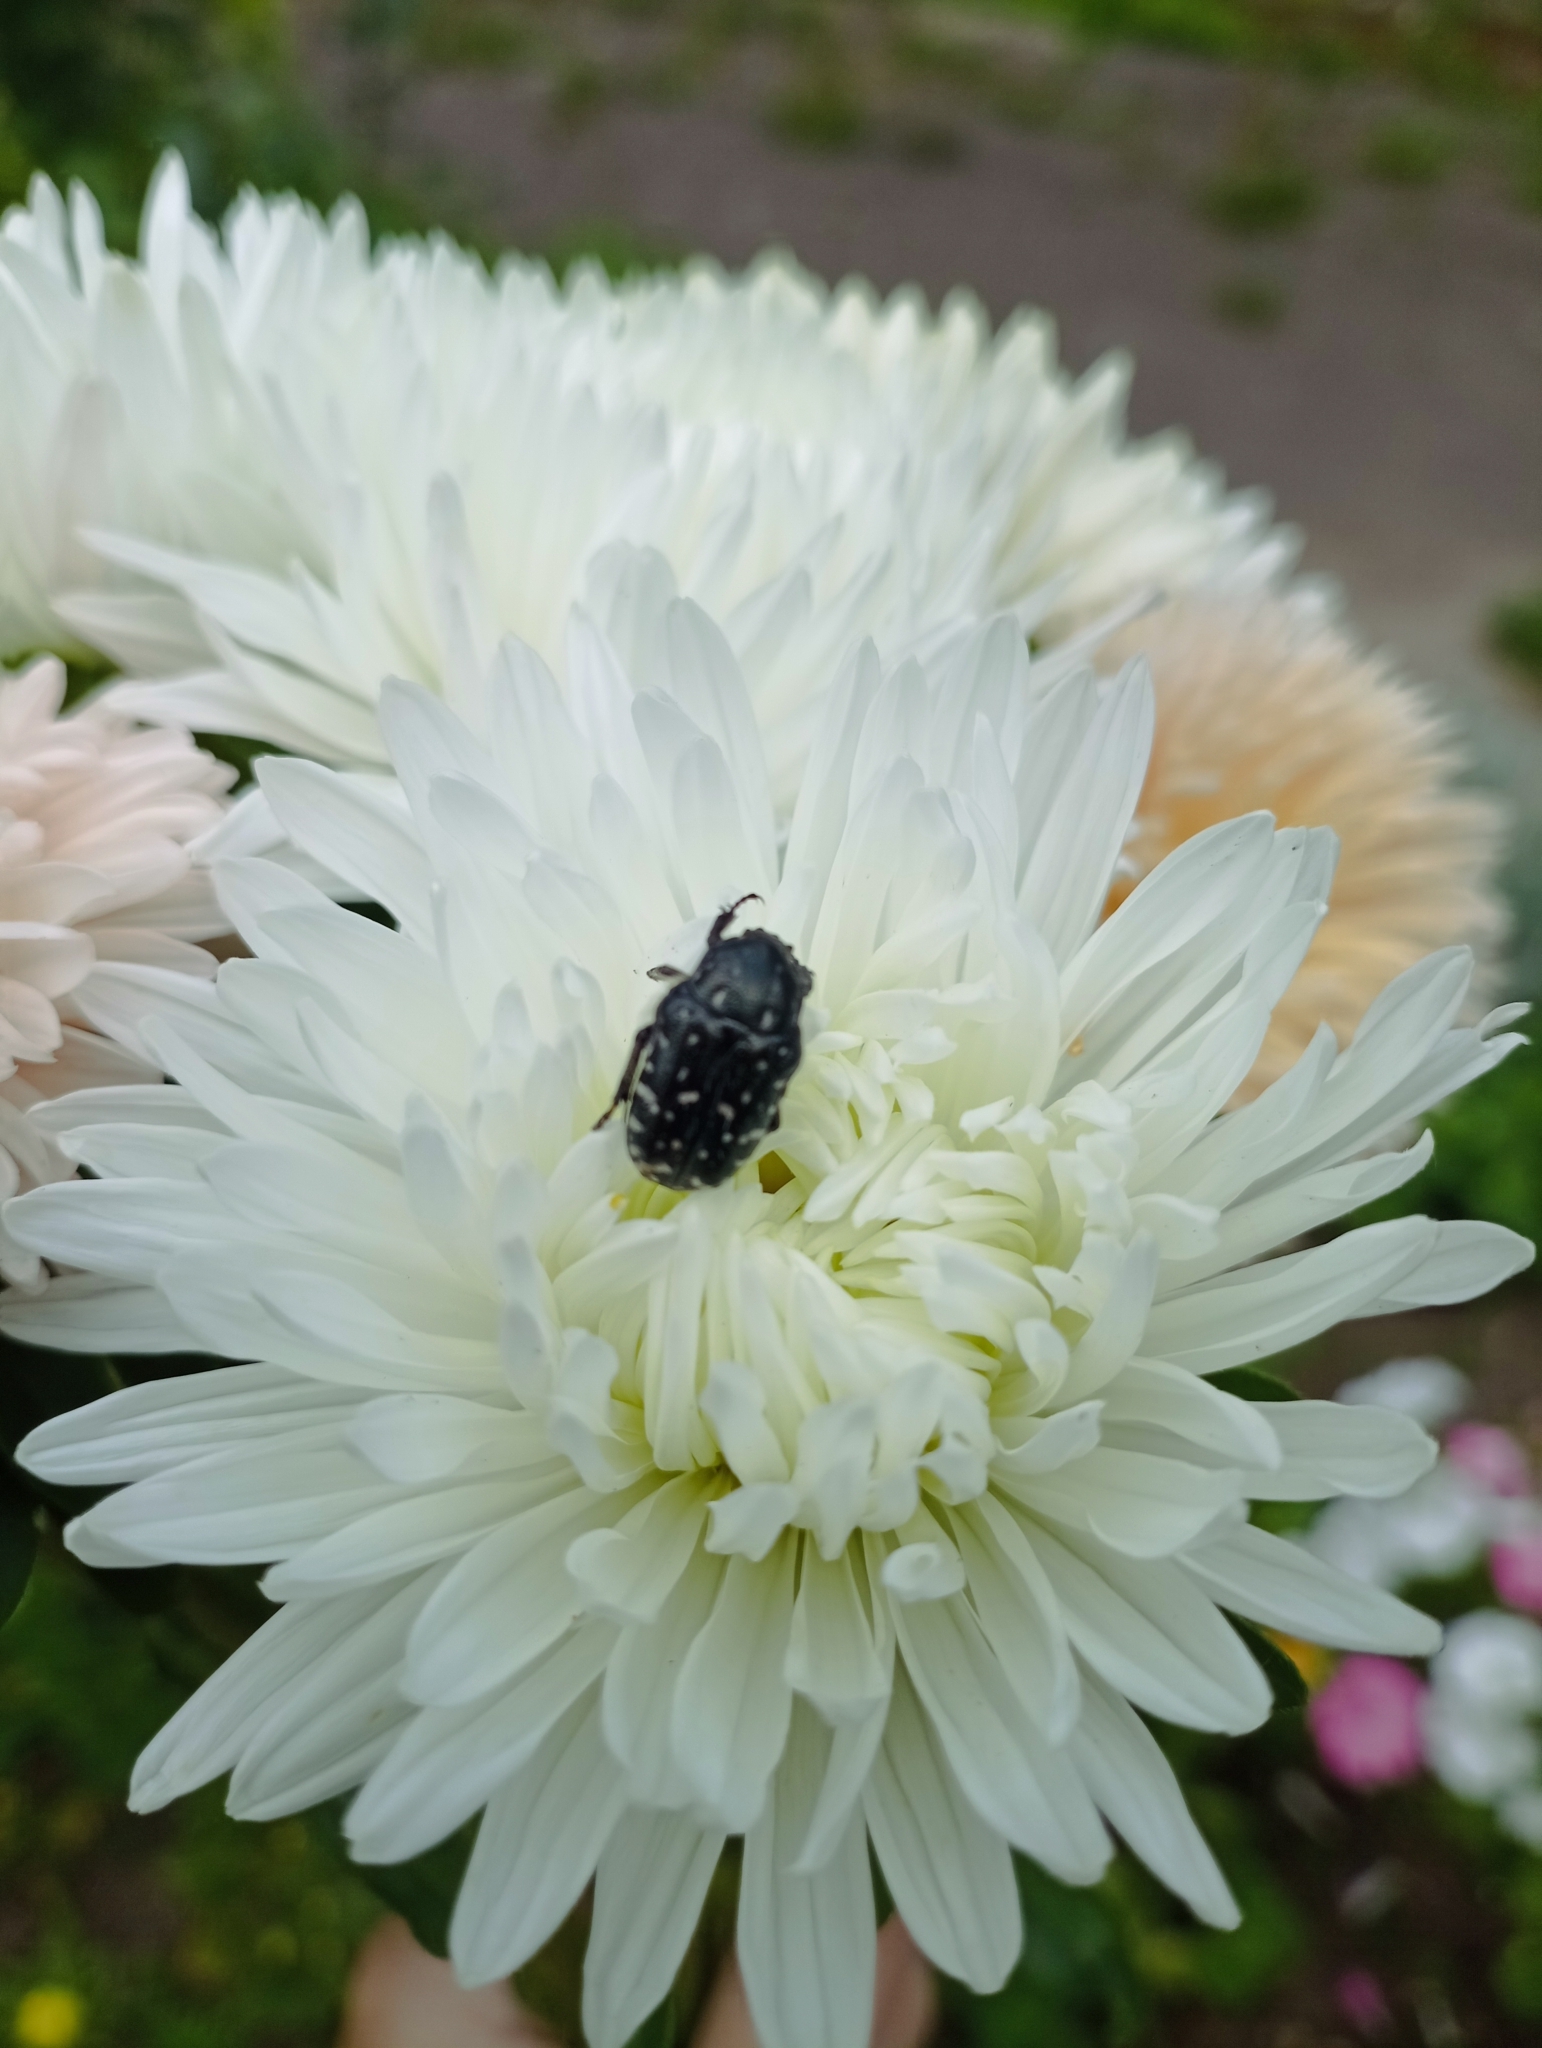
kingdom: Animalia
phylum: Arthropoda
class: Insecta
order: Coleoptera
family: Scarabaeidae
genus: Oxythyrea
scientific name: Oxythyrea funesta
